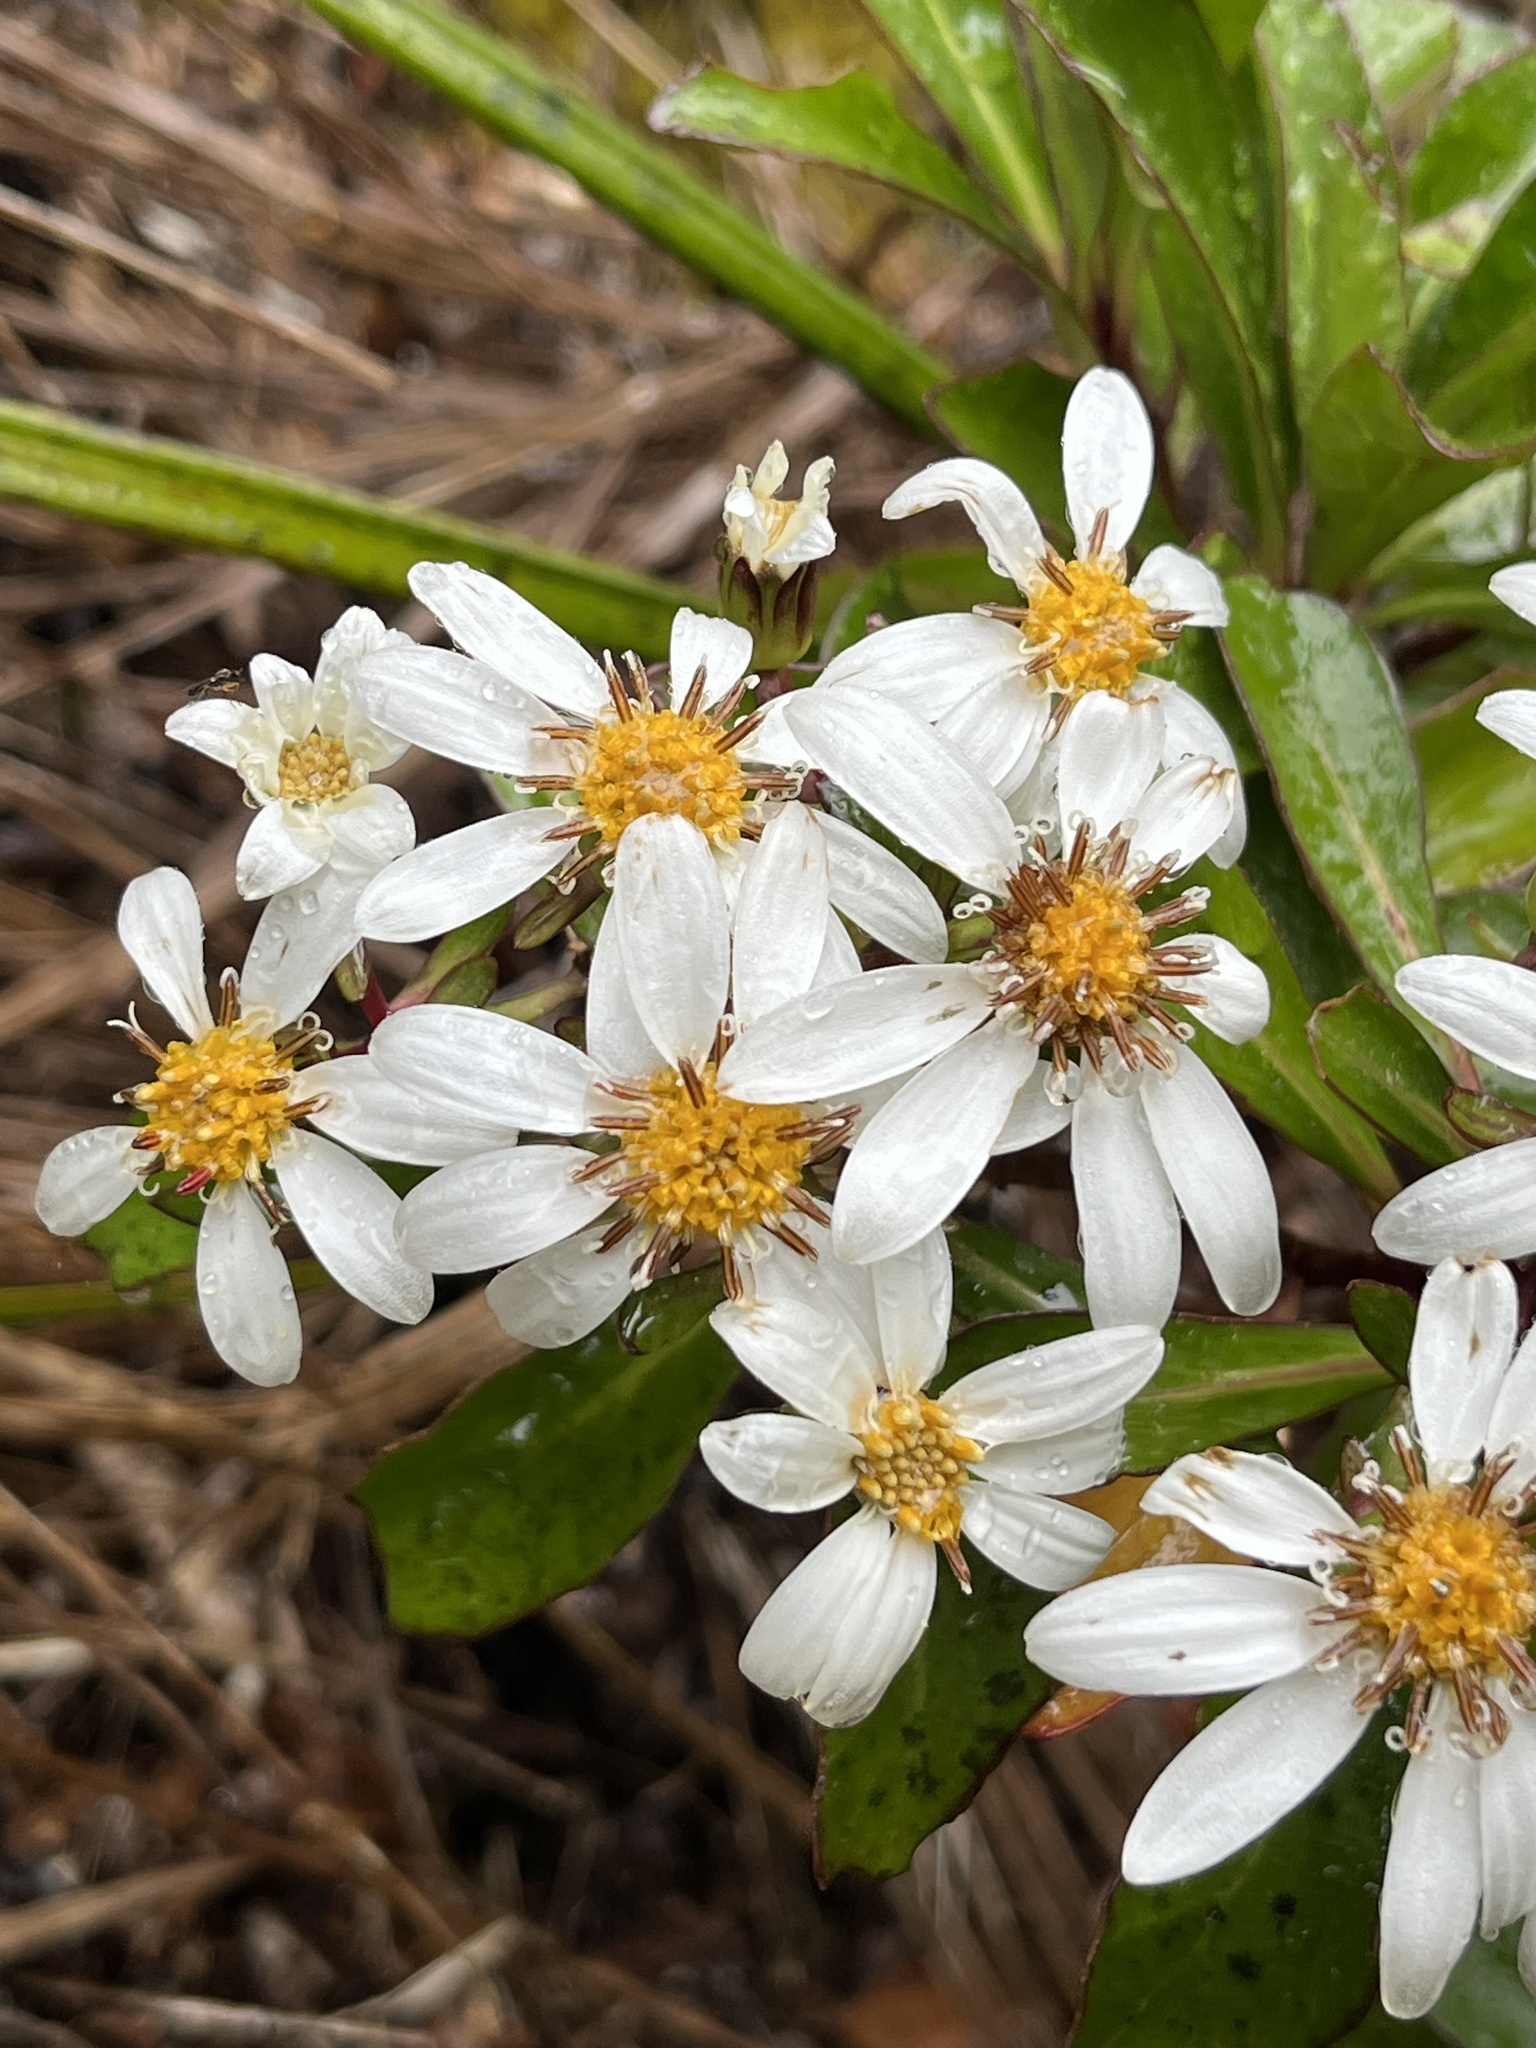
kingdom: Plantae
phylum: Tracheophyta
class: Magnoliopsida
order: Asterales
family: Asteraceae
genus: Brachyglottis
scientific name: Brachyglottis kirkii
